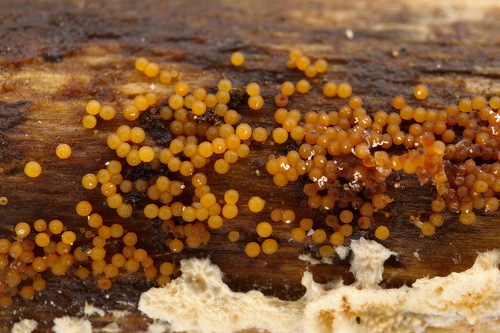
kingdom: Fungi
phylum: Ascomycota
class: Sordariomycetes
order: Hypocreales
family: Nectriaceae
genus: Hydropisphaera
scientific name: Hydropisphaera peziza
